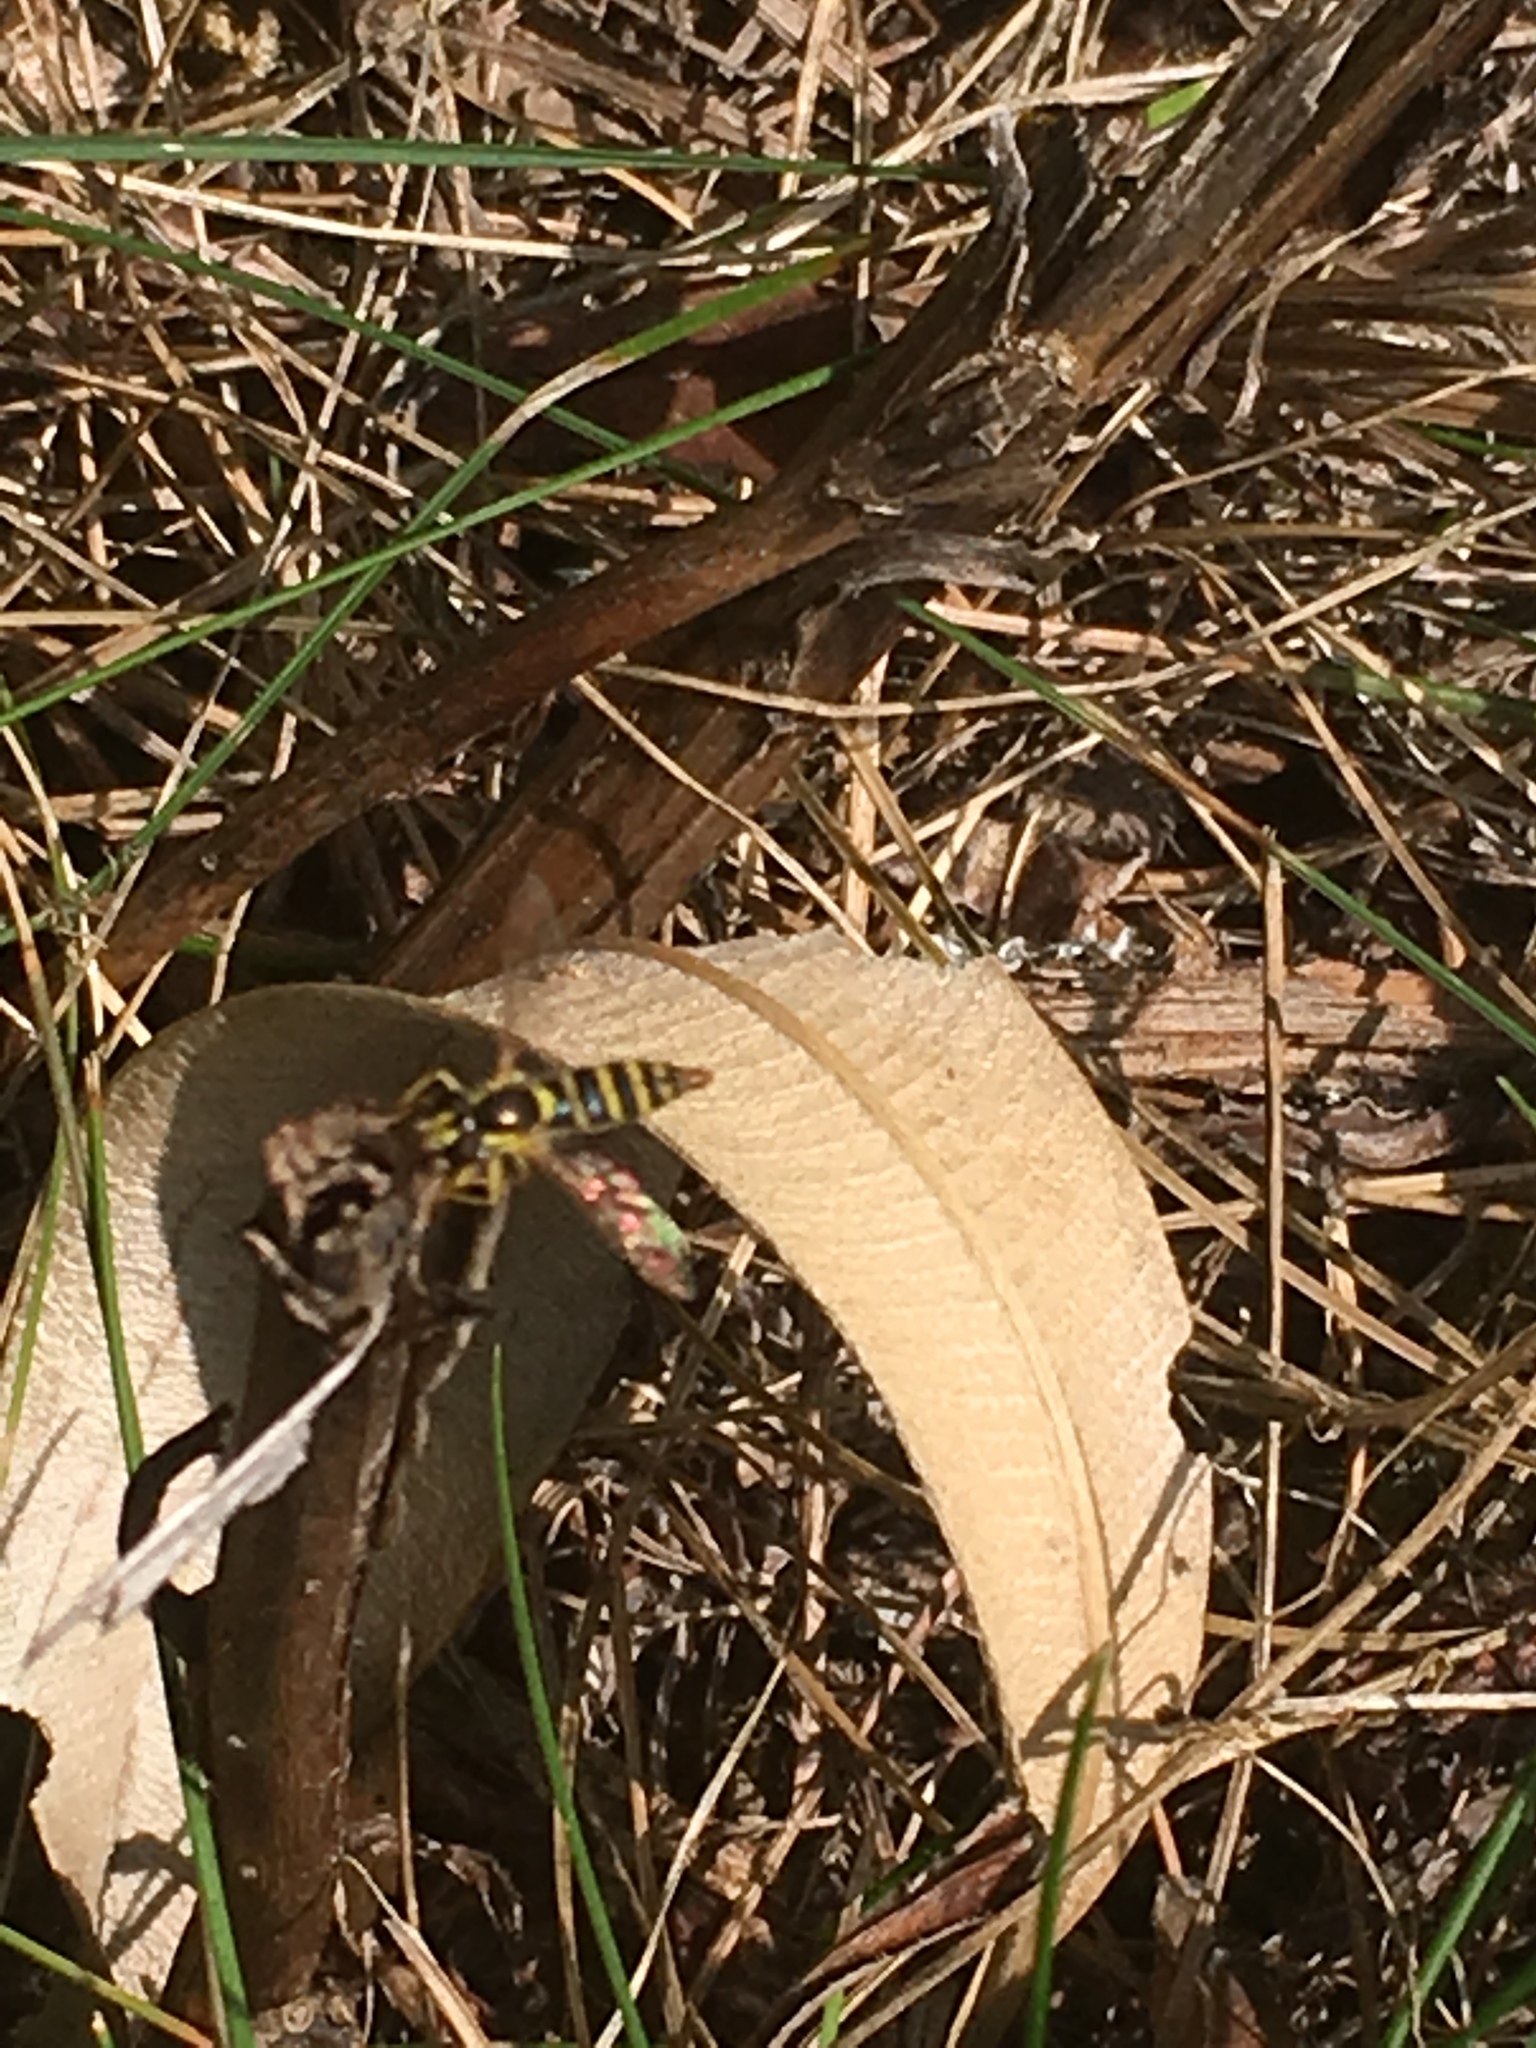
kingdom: Animalia
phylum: Arthropoda
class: Insecta
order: Diptera
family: Syrphidae
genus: Sphaerophoria
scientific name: Sphaerophoria
